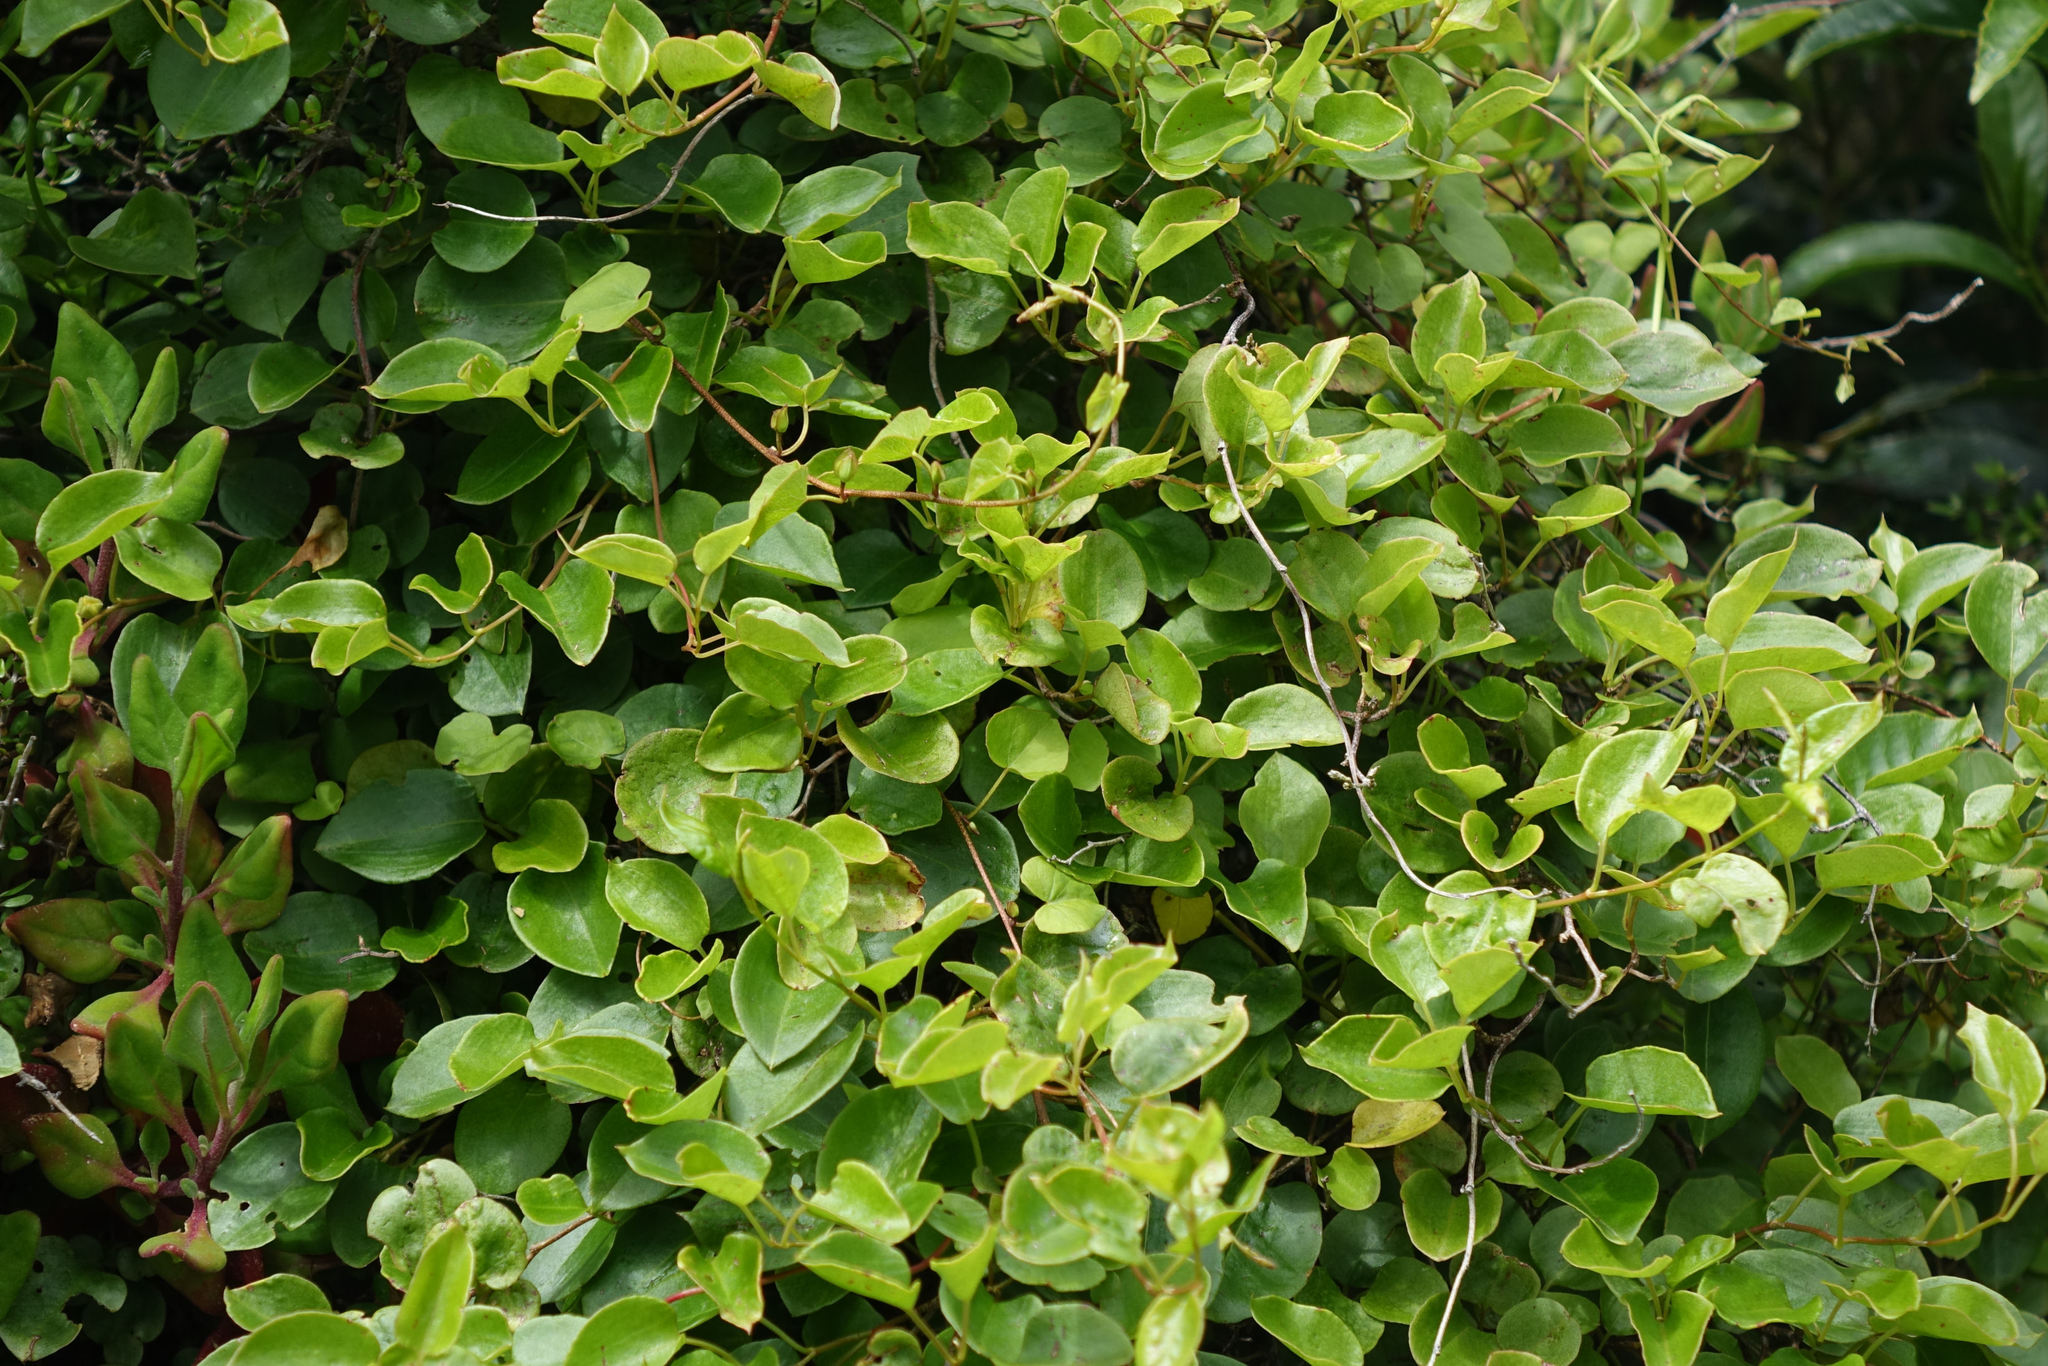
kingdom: Plantae
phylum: Tracheophyta
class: Magnoliopsida
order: Caryophyllales
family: Polygonaceae
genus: Muehlenbeckia
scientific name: Muehlenbeckia australis
